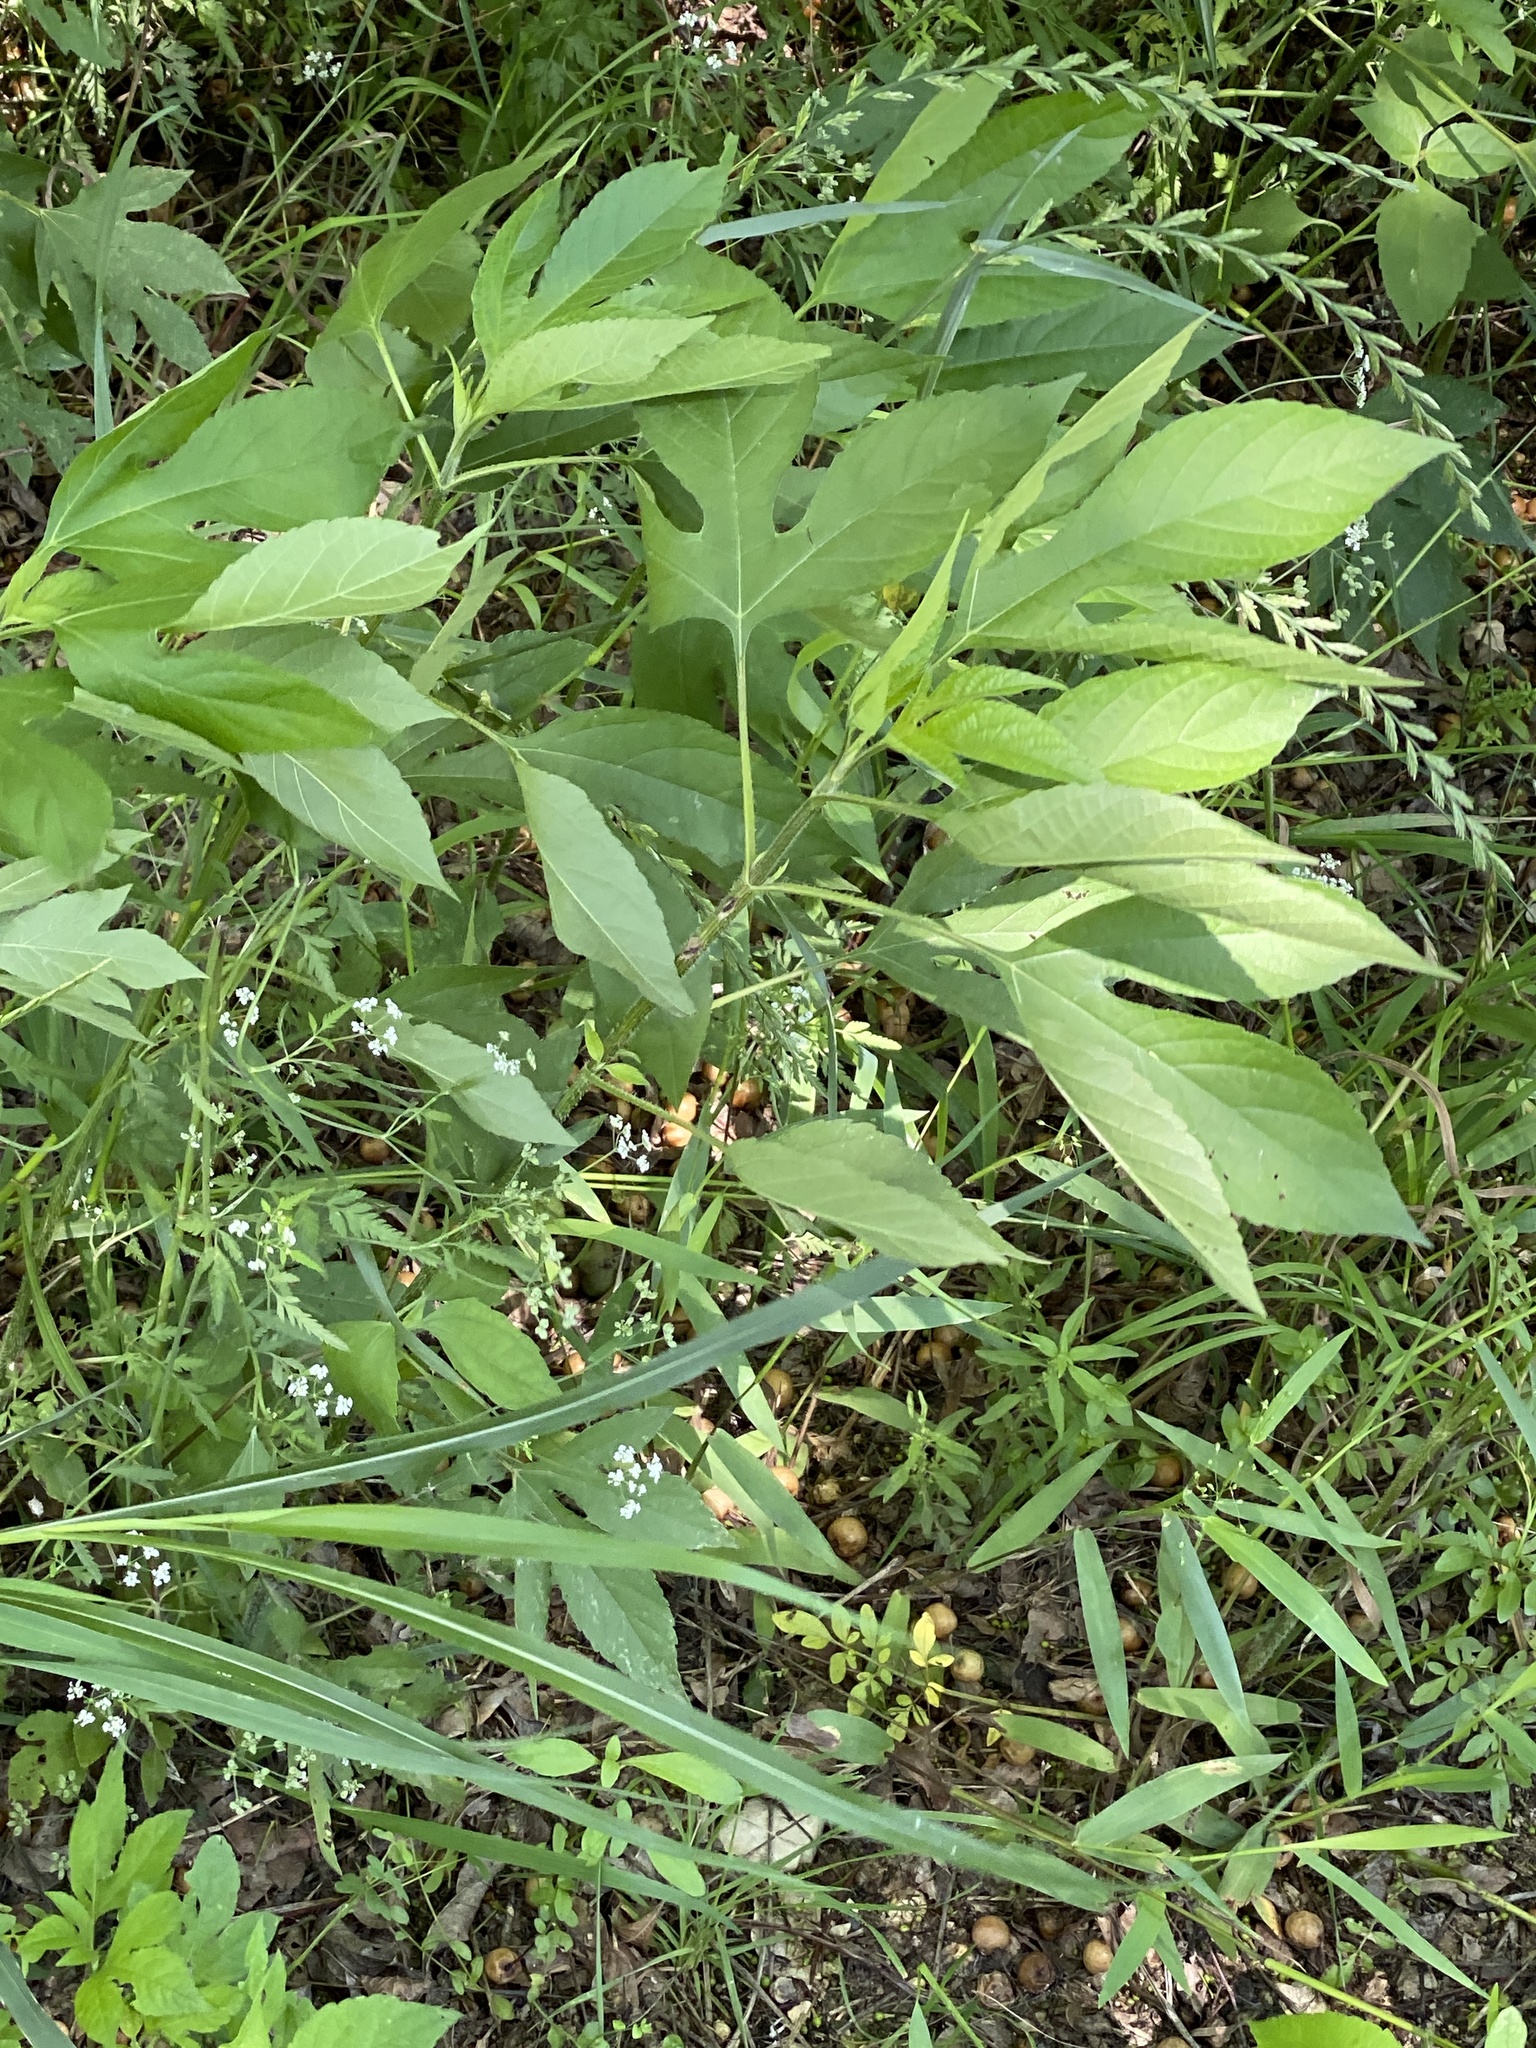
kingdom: Plantae
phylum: Tracheophyta
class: Magnoliopsida
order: Asterales
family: Asteraceae
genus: Ambrosia
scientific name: Ambrosia trifida
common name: Giant ragweed
